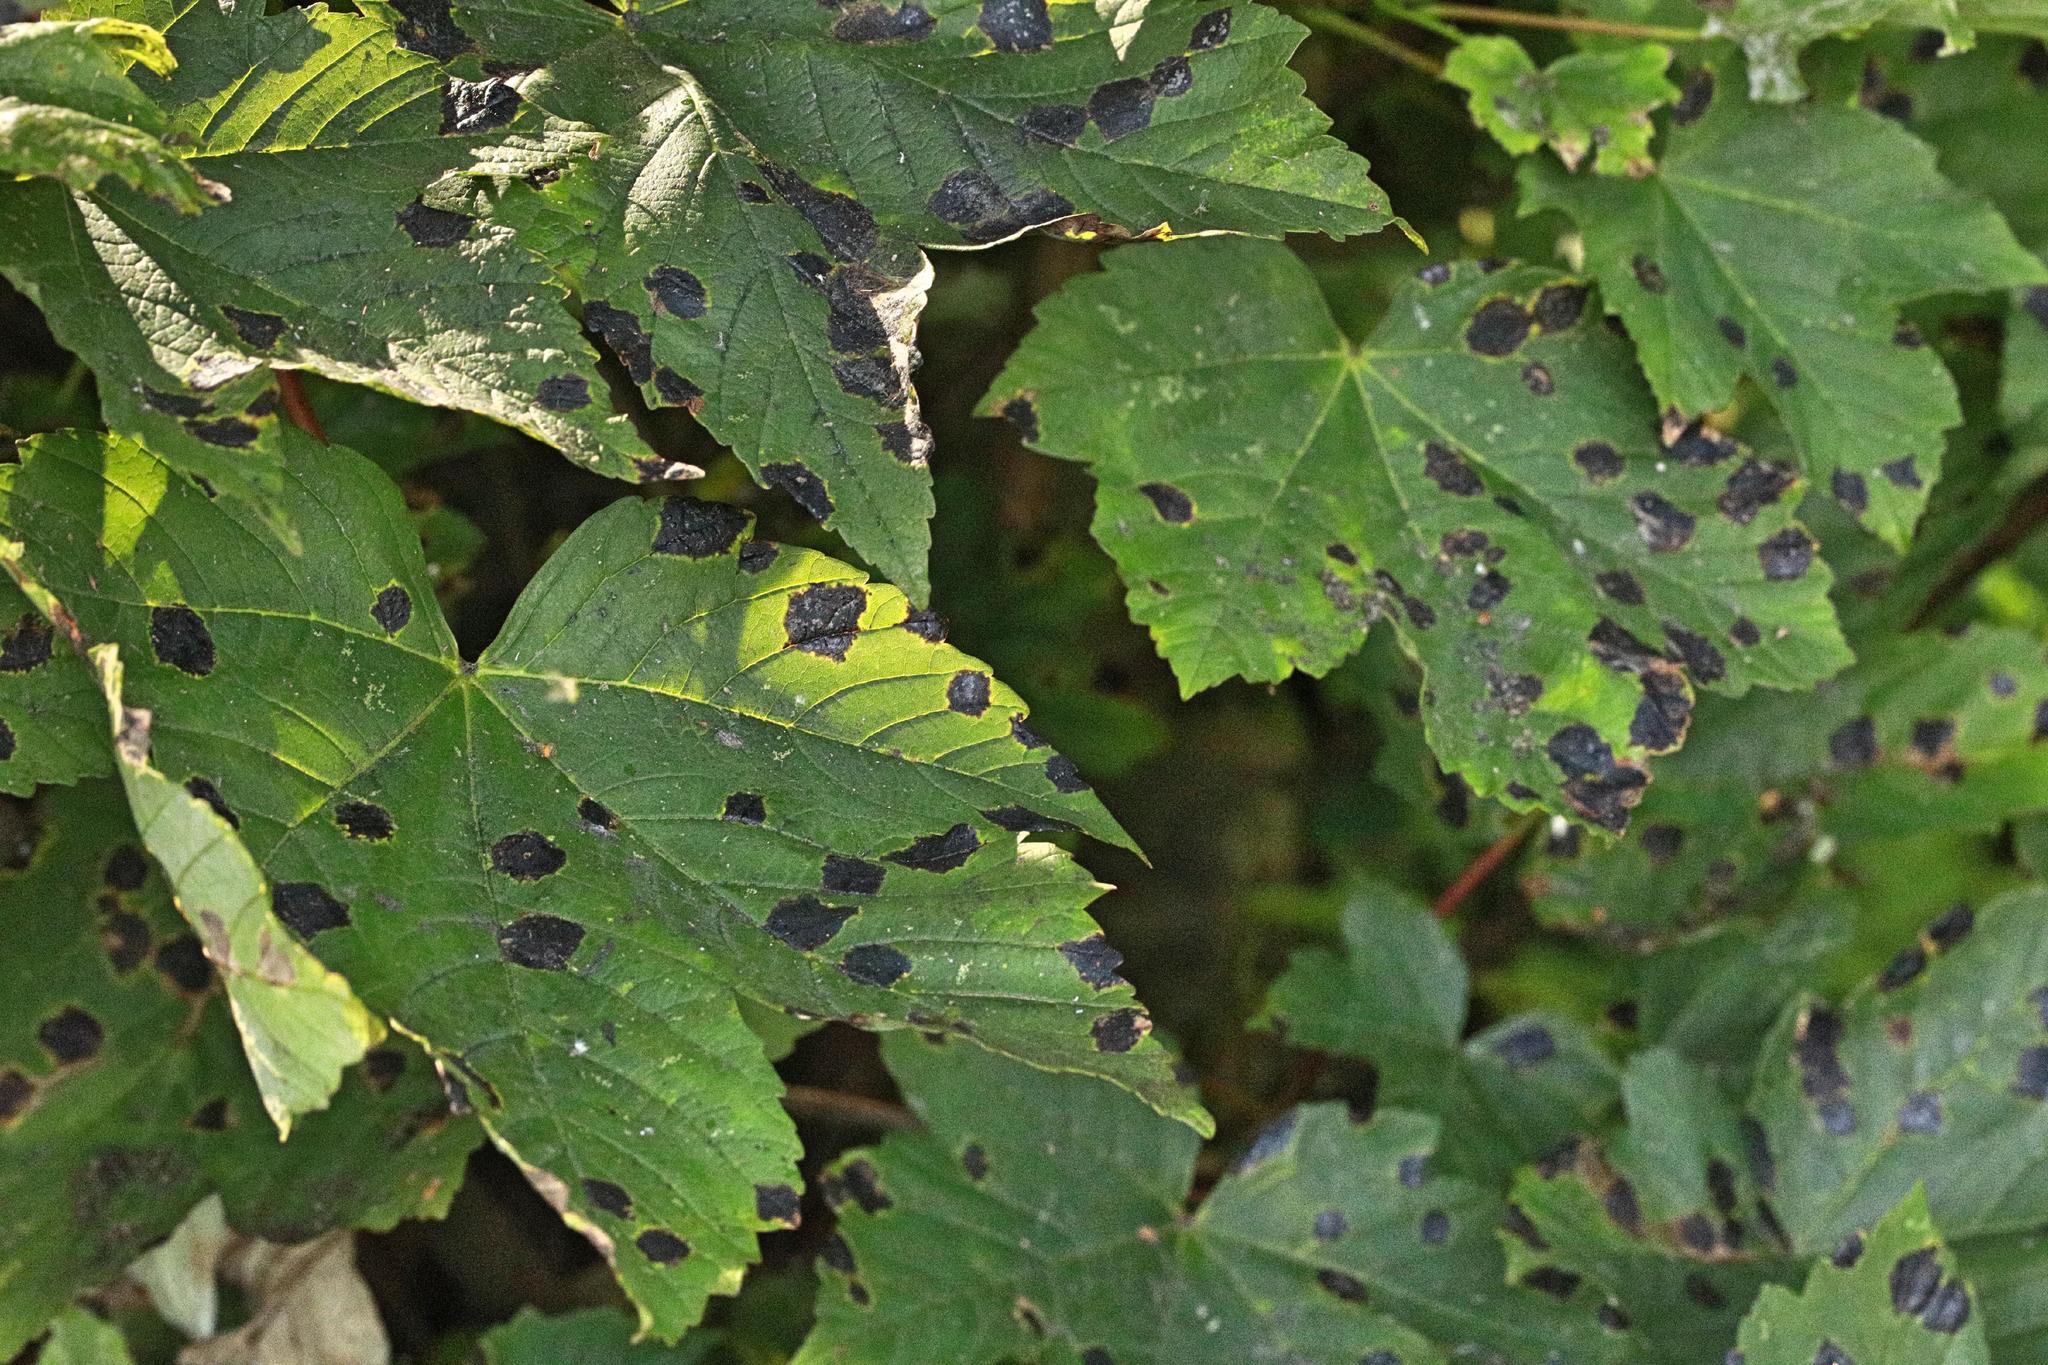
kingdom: Fungi
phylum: Ascomycota
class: Leotiomycetes
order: Rhytismatales
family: Rhytismataceae
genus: Rhytisma
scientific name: Rhytisma acerinum
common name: European tar spot
